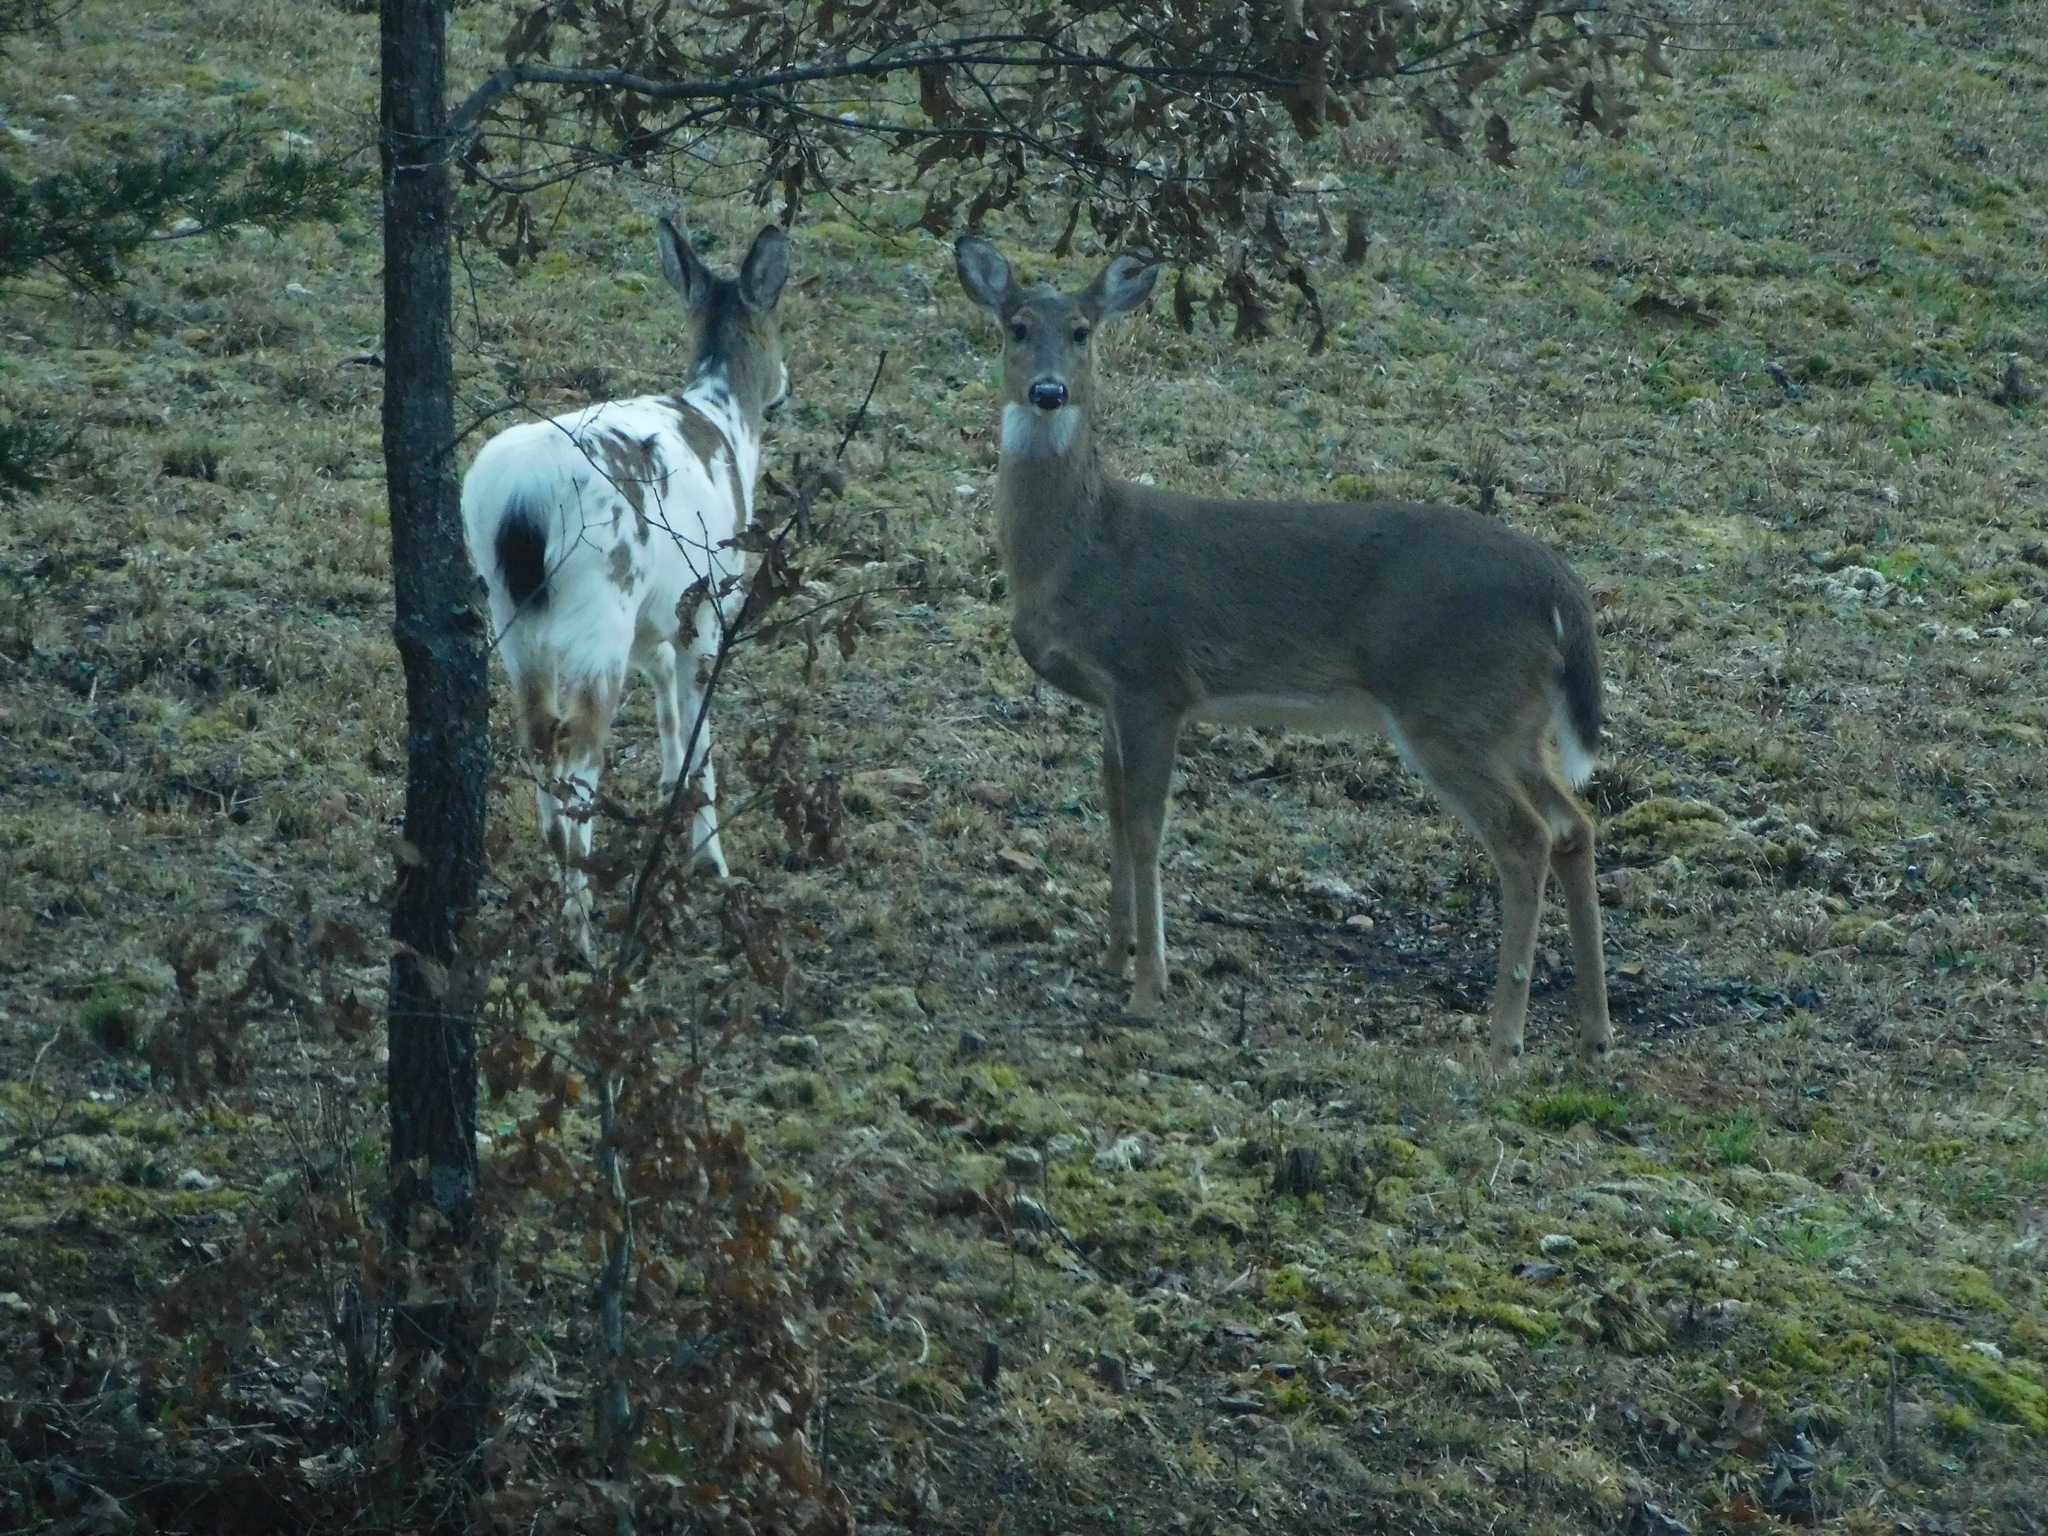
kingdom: Animalia
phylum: Chordata
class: Mammalia
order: Artiodactyla
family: Cervidae
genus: Odocoileus
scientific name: Odocoileus virginianus
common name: White-tailed deer
